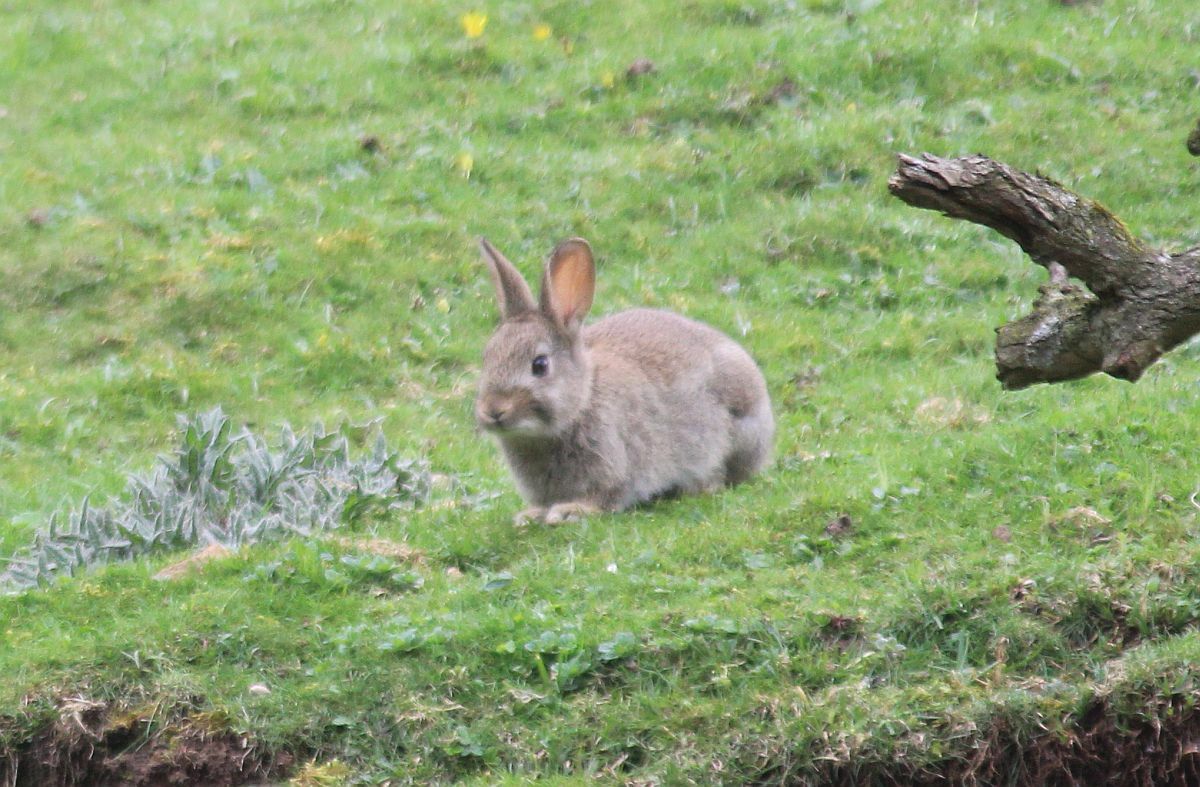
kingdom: Animalia
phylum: Chordata
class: Mammalia
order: Lagomorpha
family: Leporidae
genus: Oryctolagus
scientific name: Oryctolagus cuniculus
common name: European rabbit
